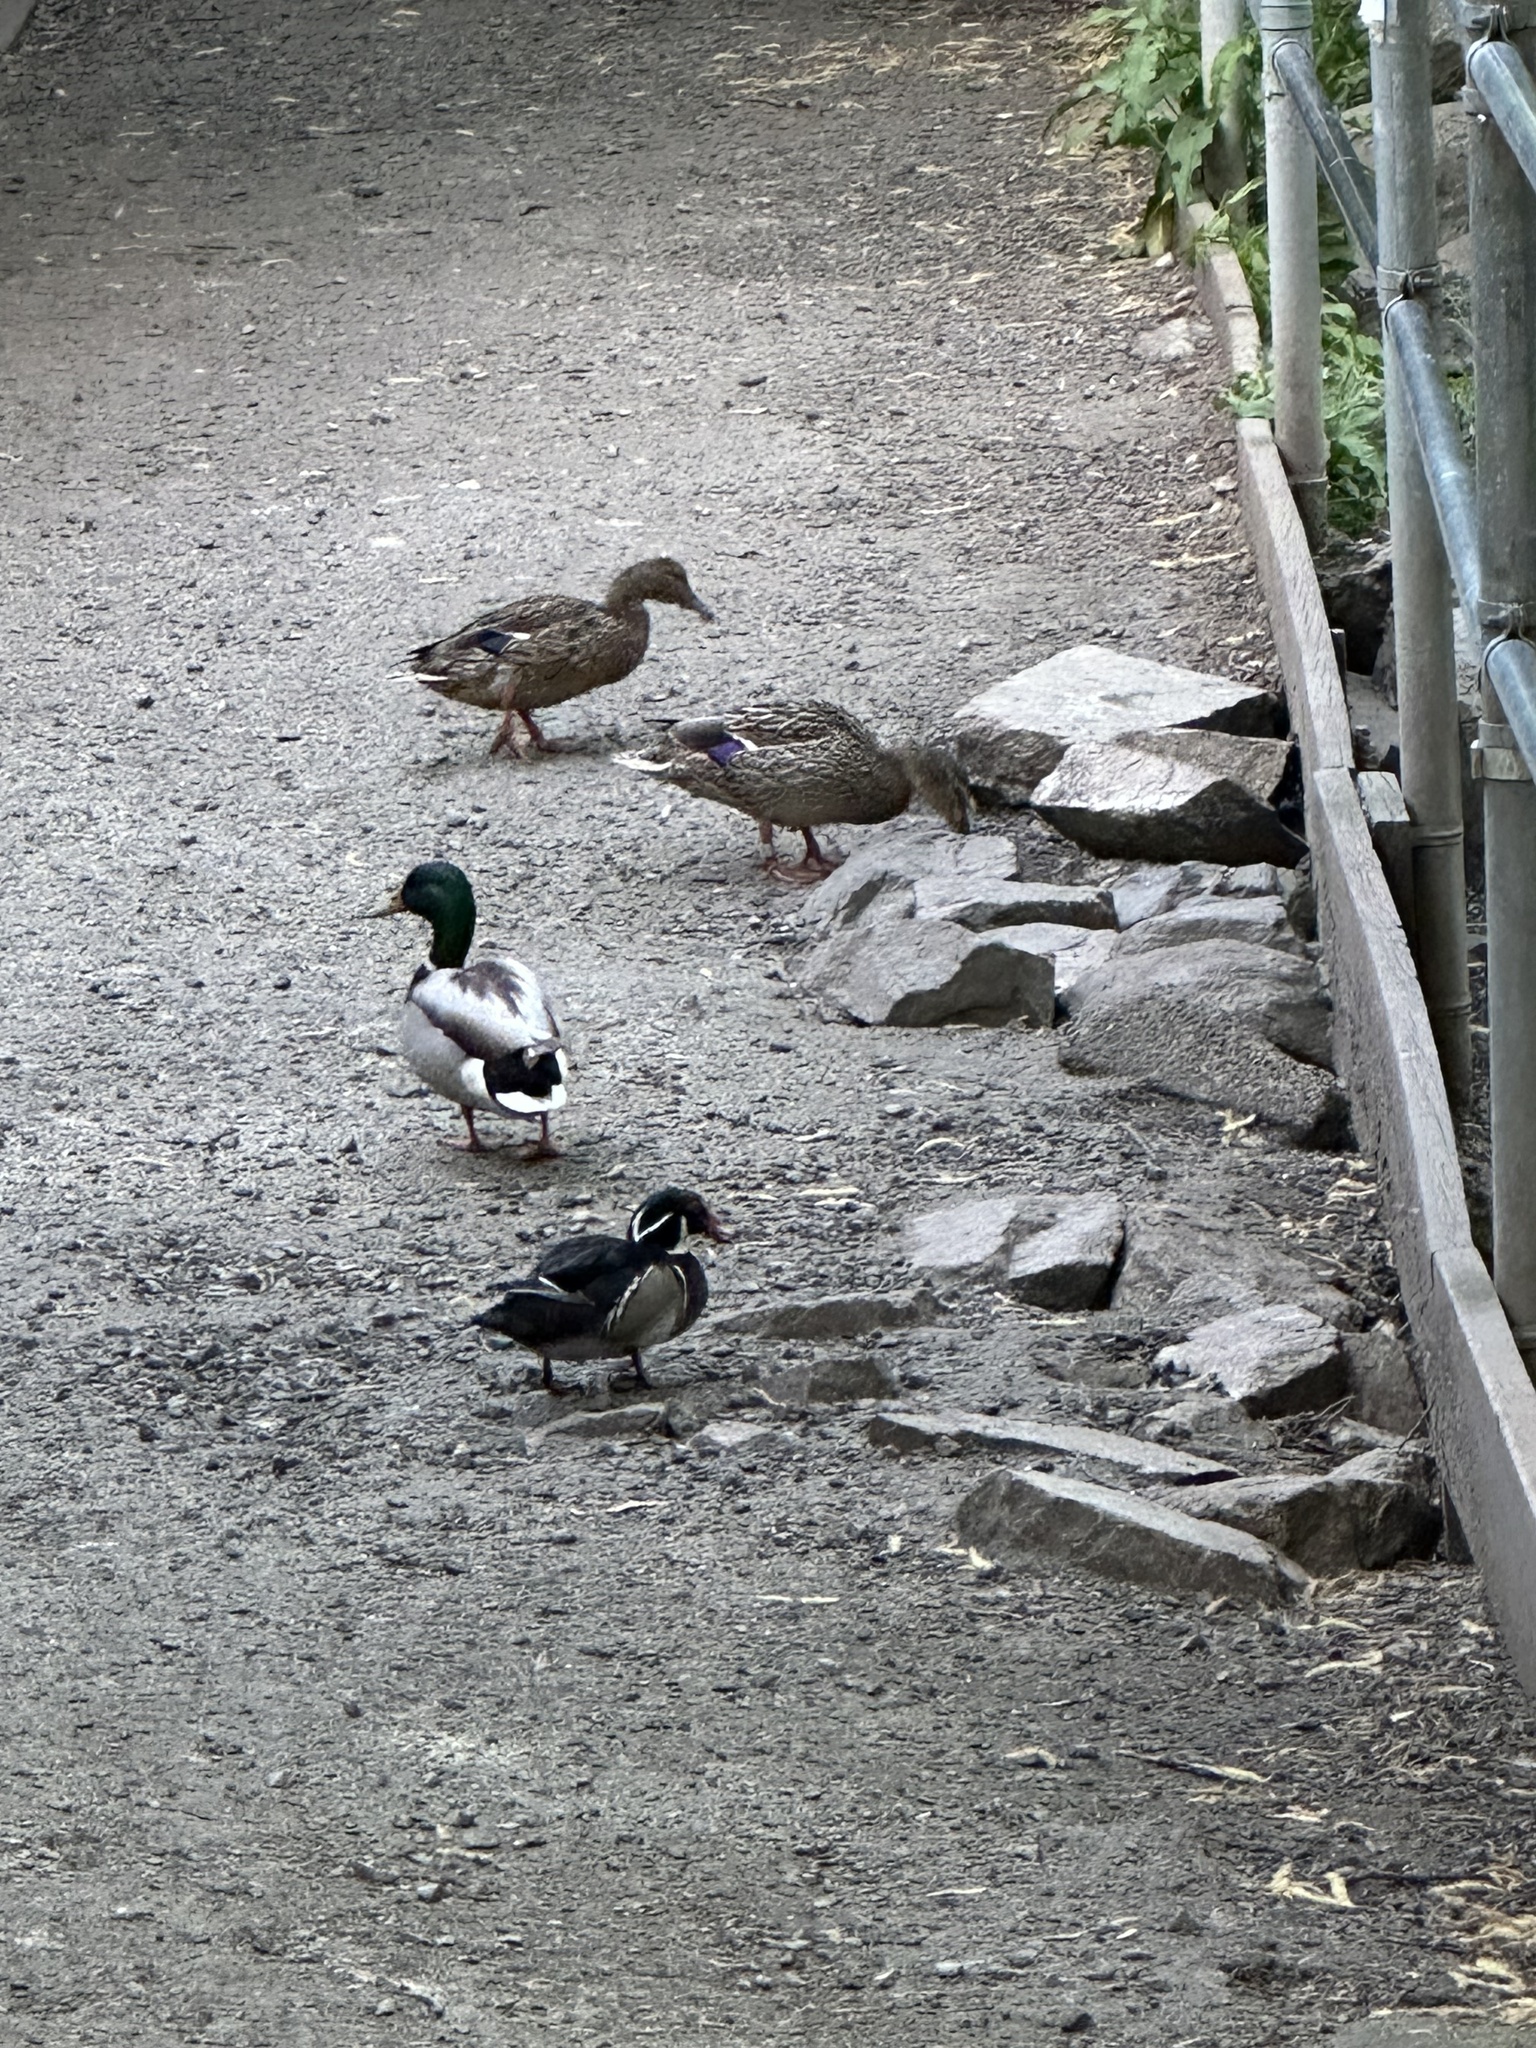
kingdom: Animalia
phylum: Chordata
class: Aves
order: Anseriformes
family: Anatidae
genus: Aix
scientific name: Aix sponsa
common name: Wood duck
